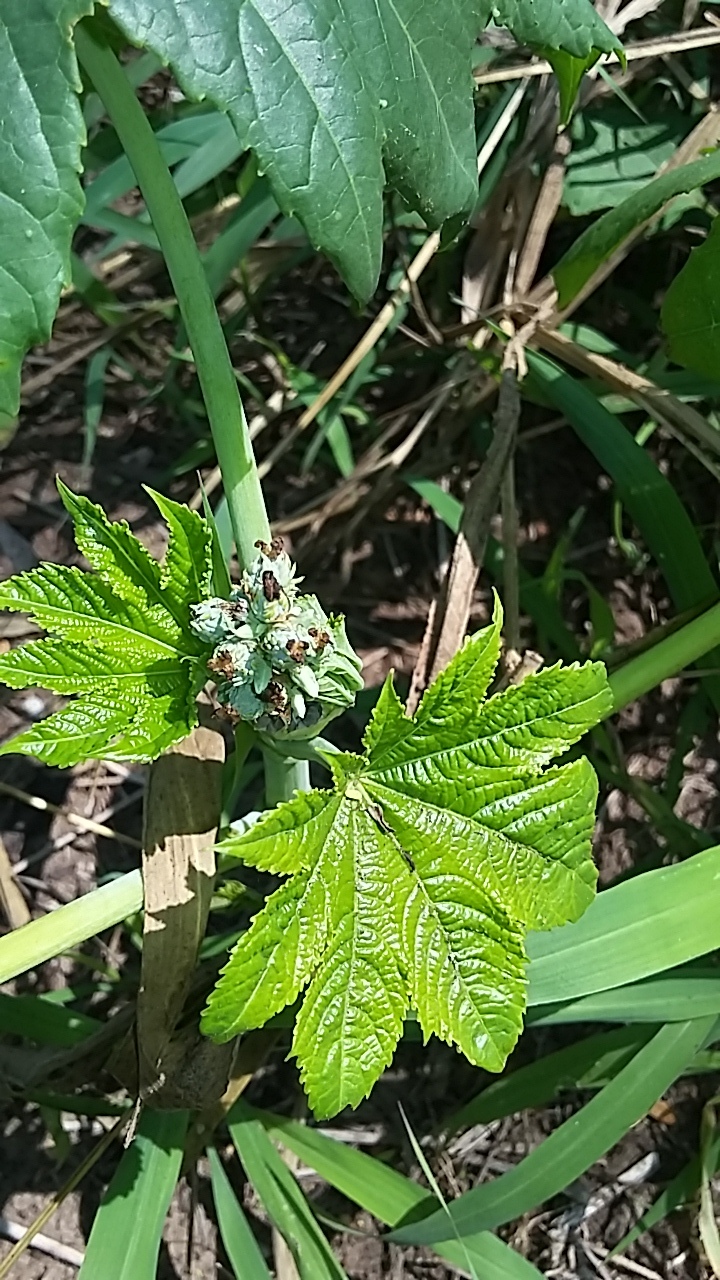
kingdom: Plantae
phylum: Tracheophyta
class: Magnoliopsida
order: Malpighiales
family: Euphorbiaceae
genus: Ricinus
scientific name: Ricinus communis
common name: Castor-oil-plant
